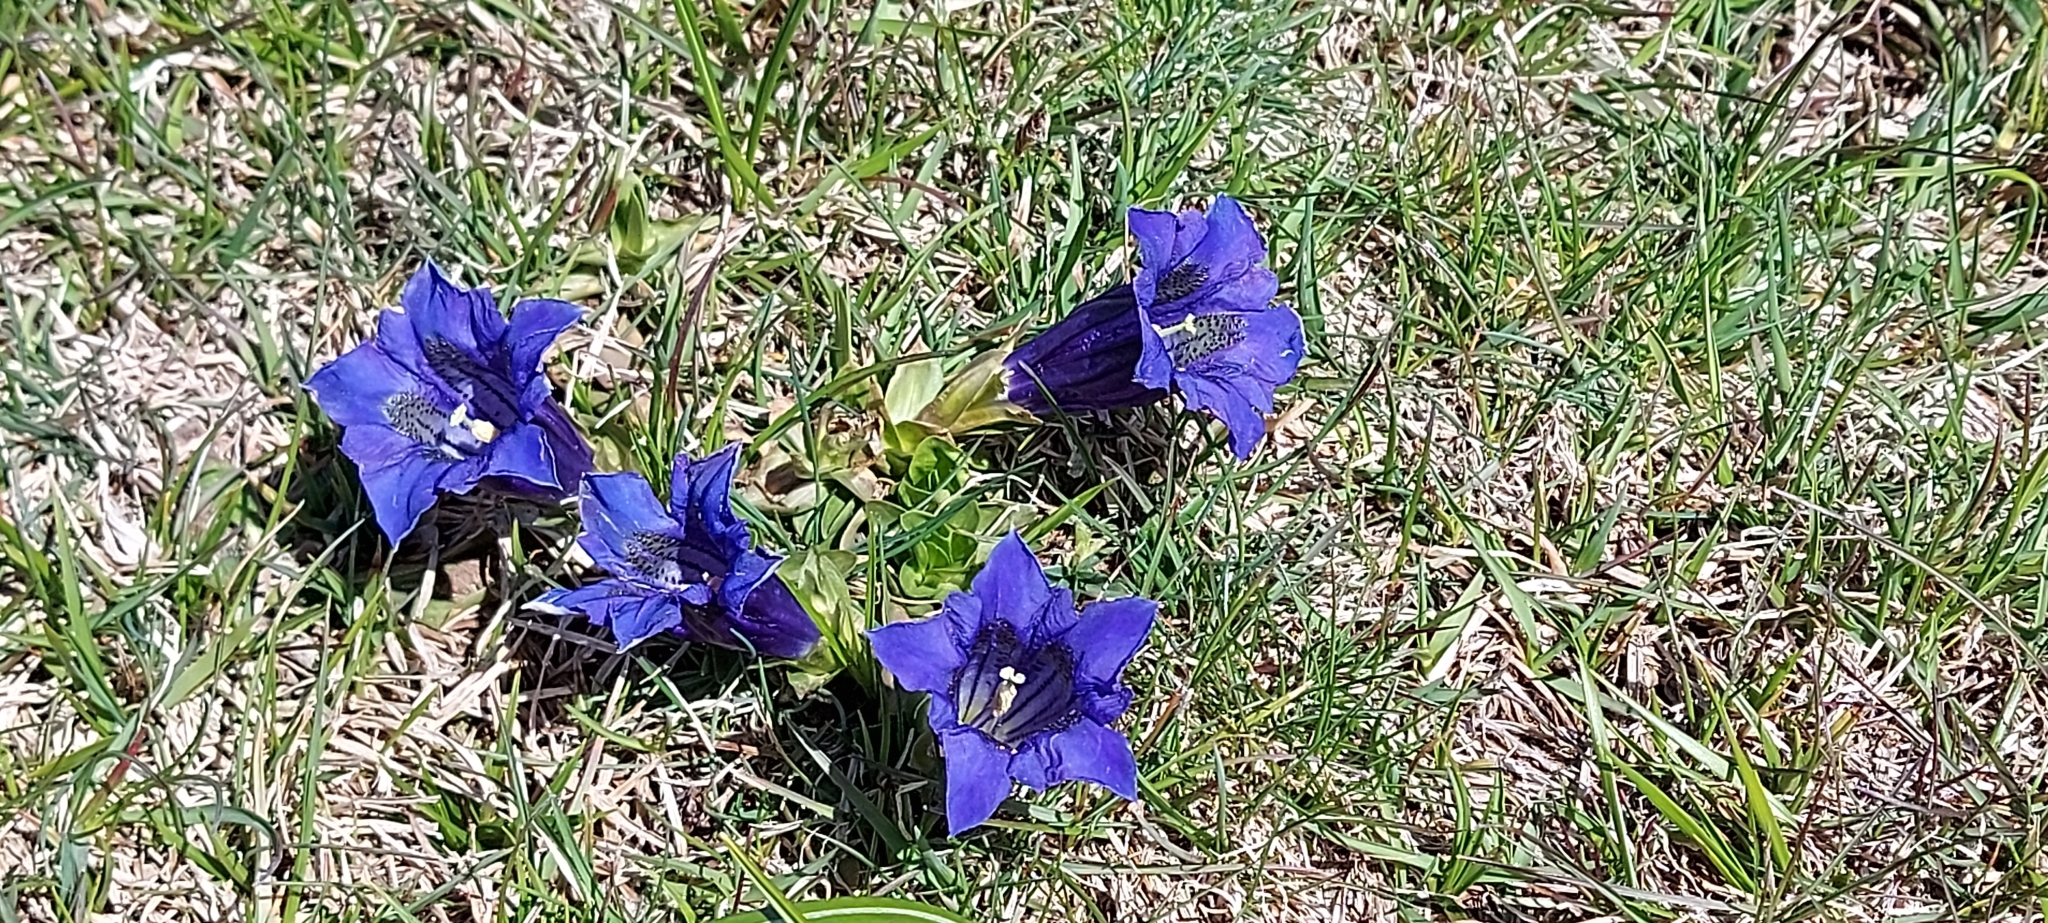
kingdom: Plantae
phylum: Tracheophyta
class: Magnoliopsida
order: Gentianales
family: Gentianaceae
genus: Gentiana
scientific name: Gentiana acaulis
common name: Trumpet gentian
